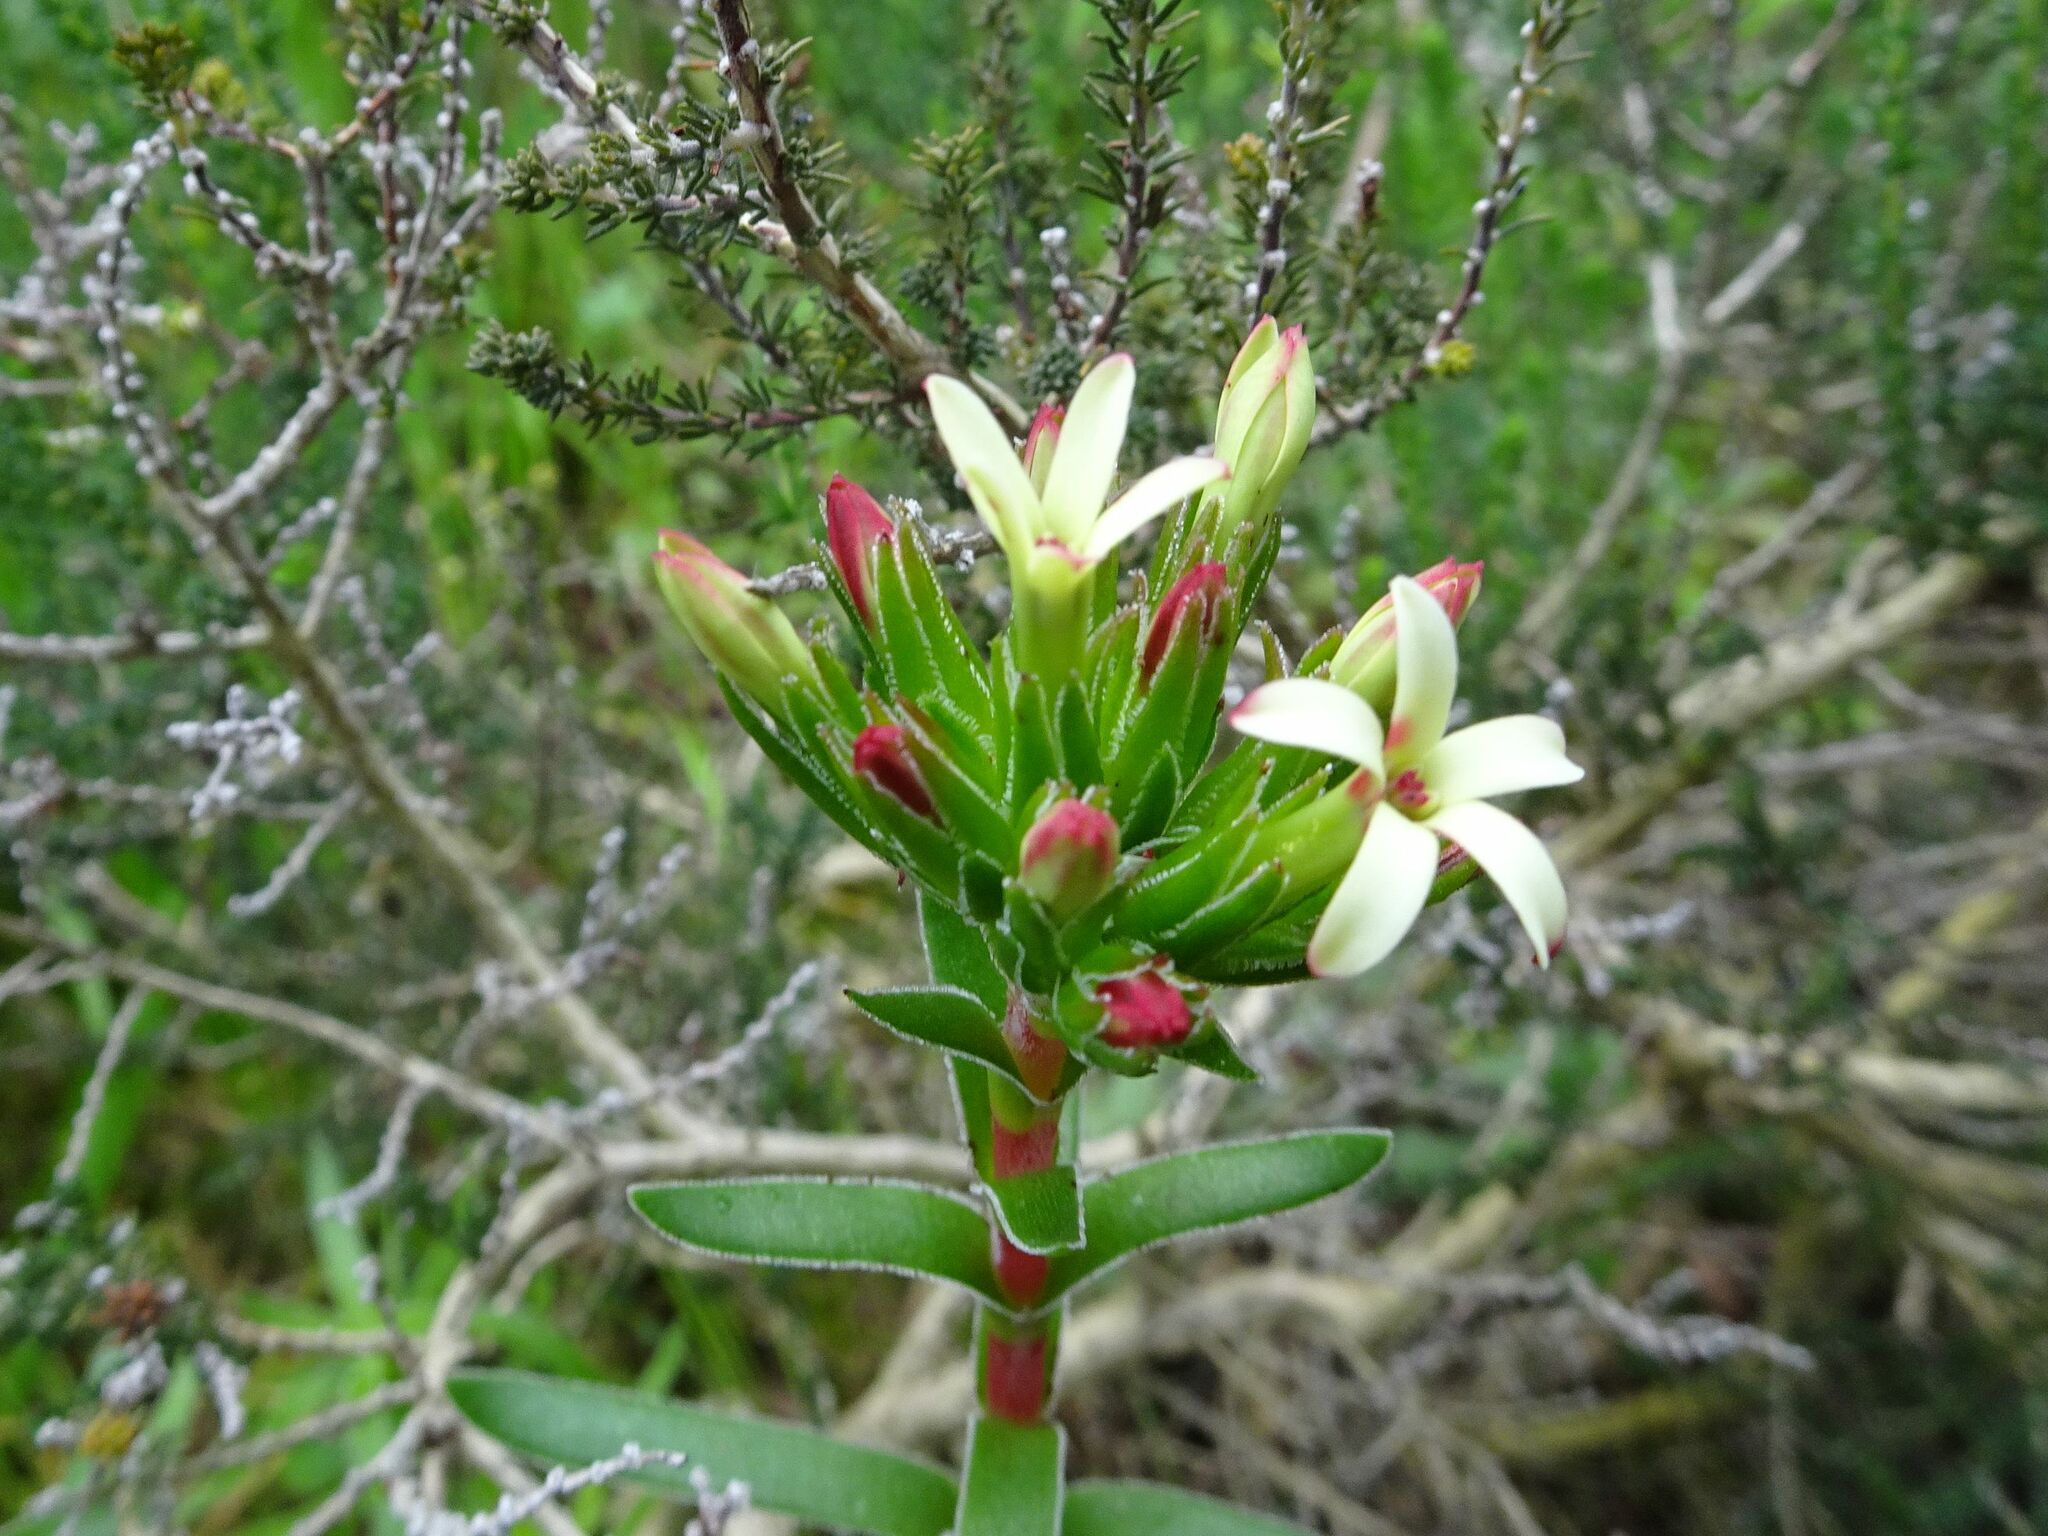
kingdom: Plantae
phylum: Tracheophyta
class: Magnoliopsida
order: Saxifragales
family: Crassulaceae
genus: Crassula
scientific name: Crassula fascicularis
